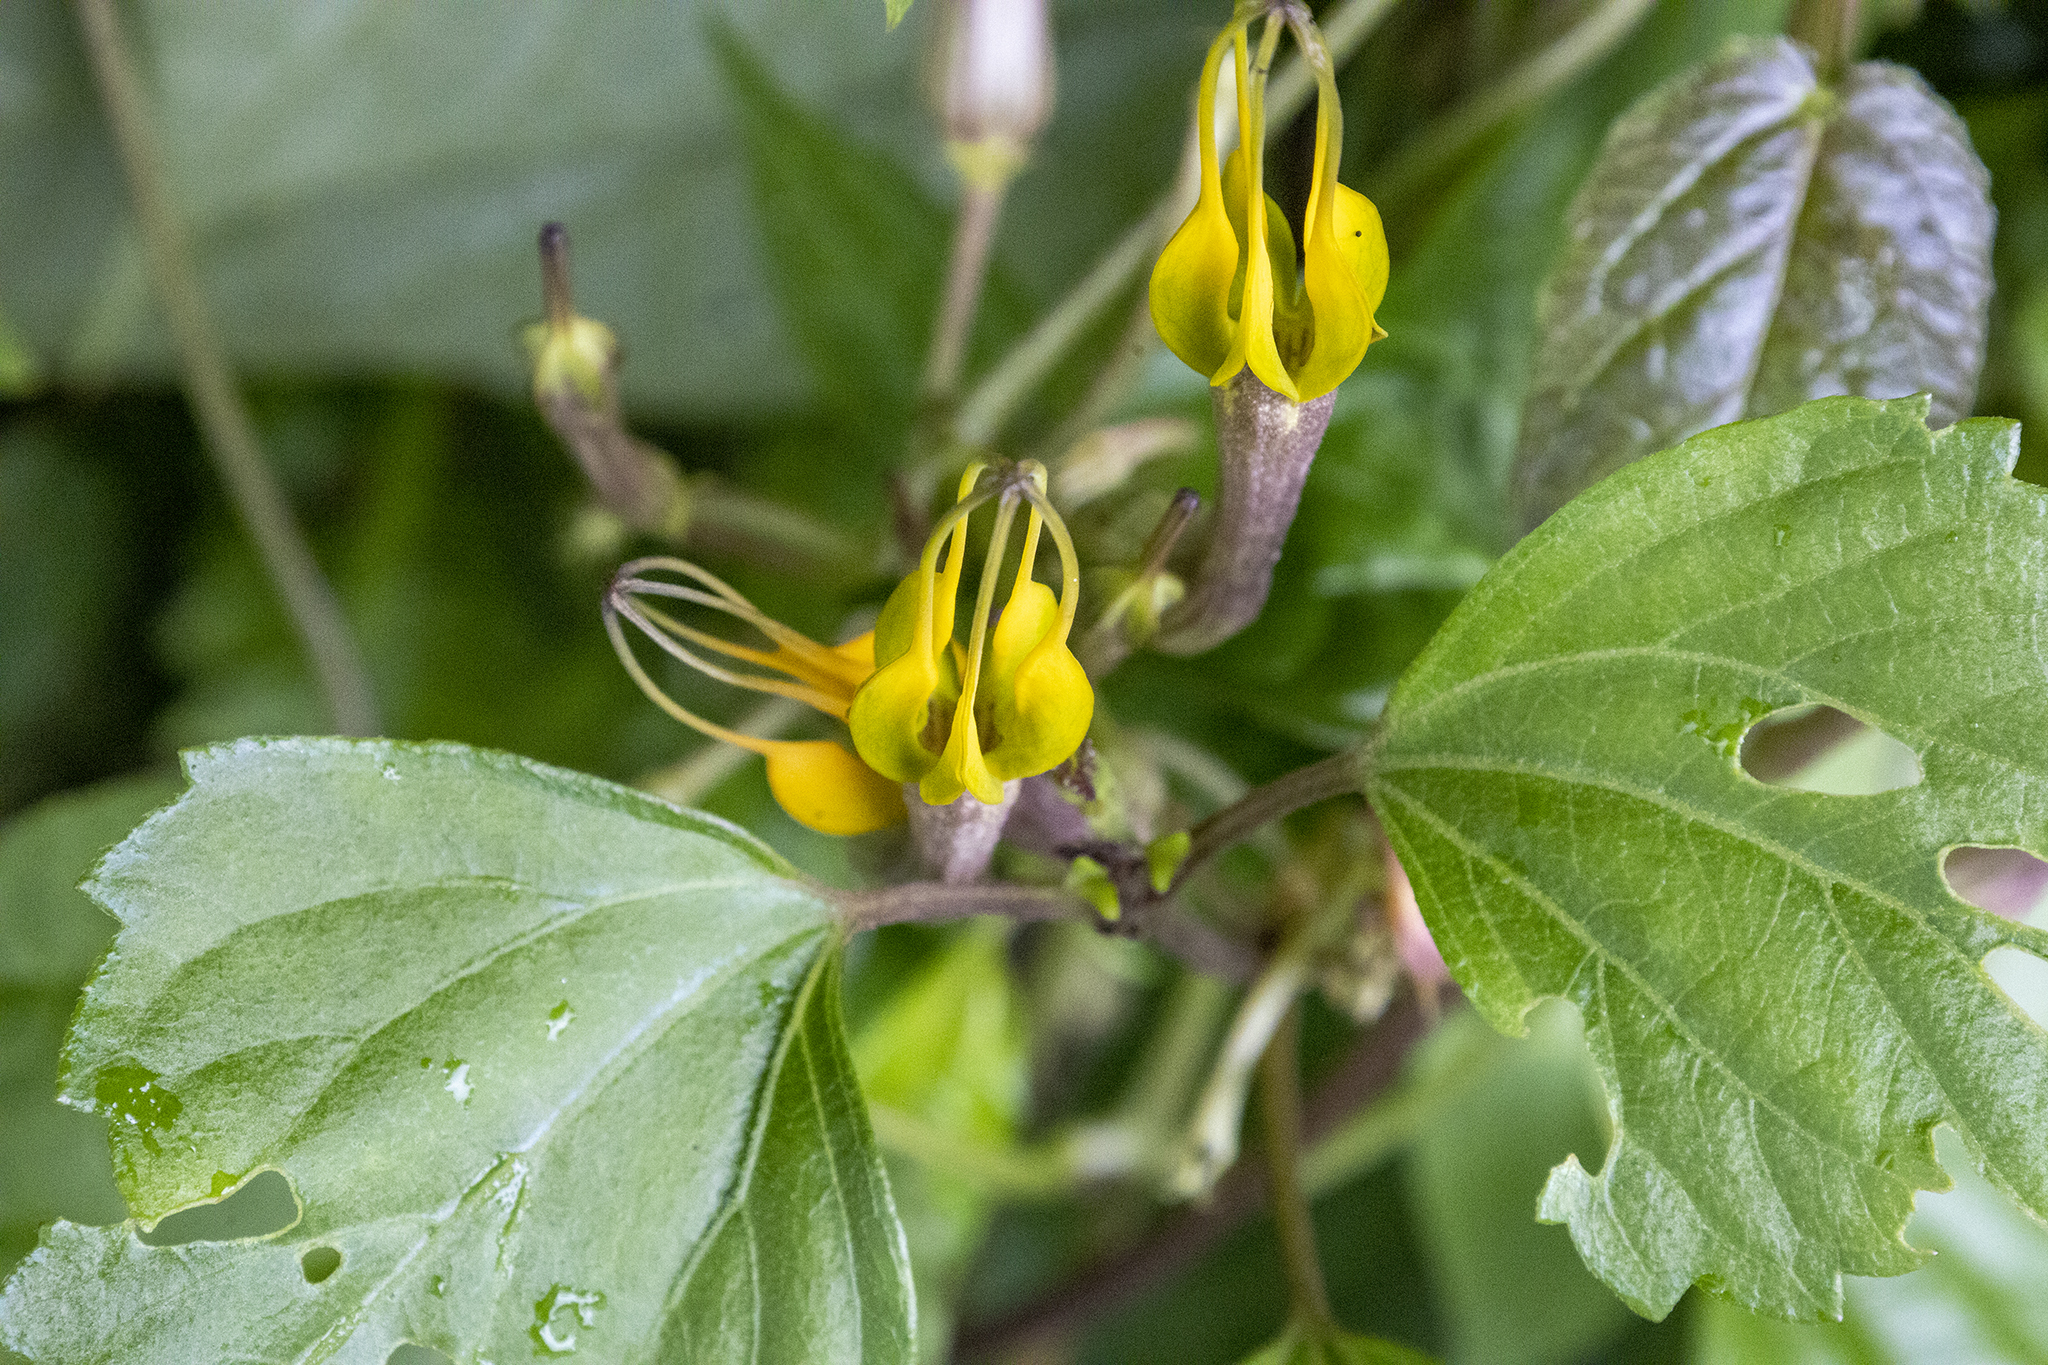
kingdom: Plantae
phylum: Tracheophyta
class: Magnoliopsida
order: Gentianales
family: Apocynaceae
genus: Ceropegia
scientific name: Ceropegia pubescens
